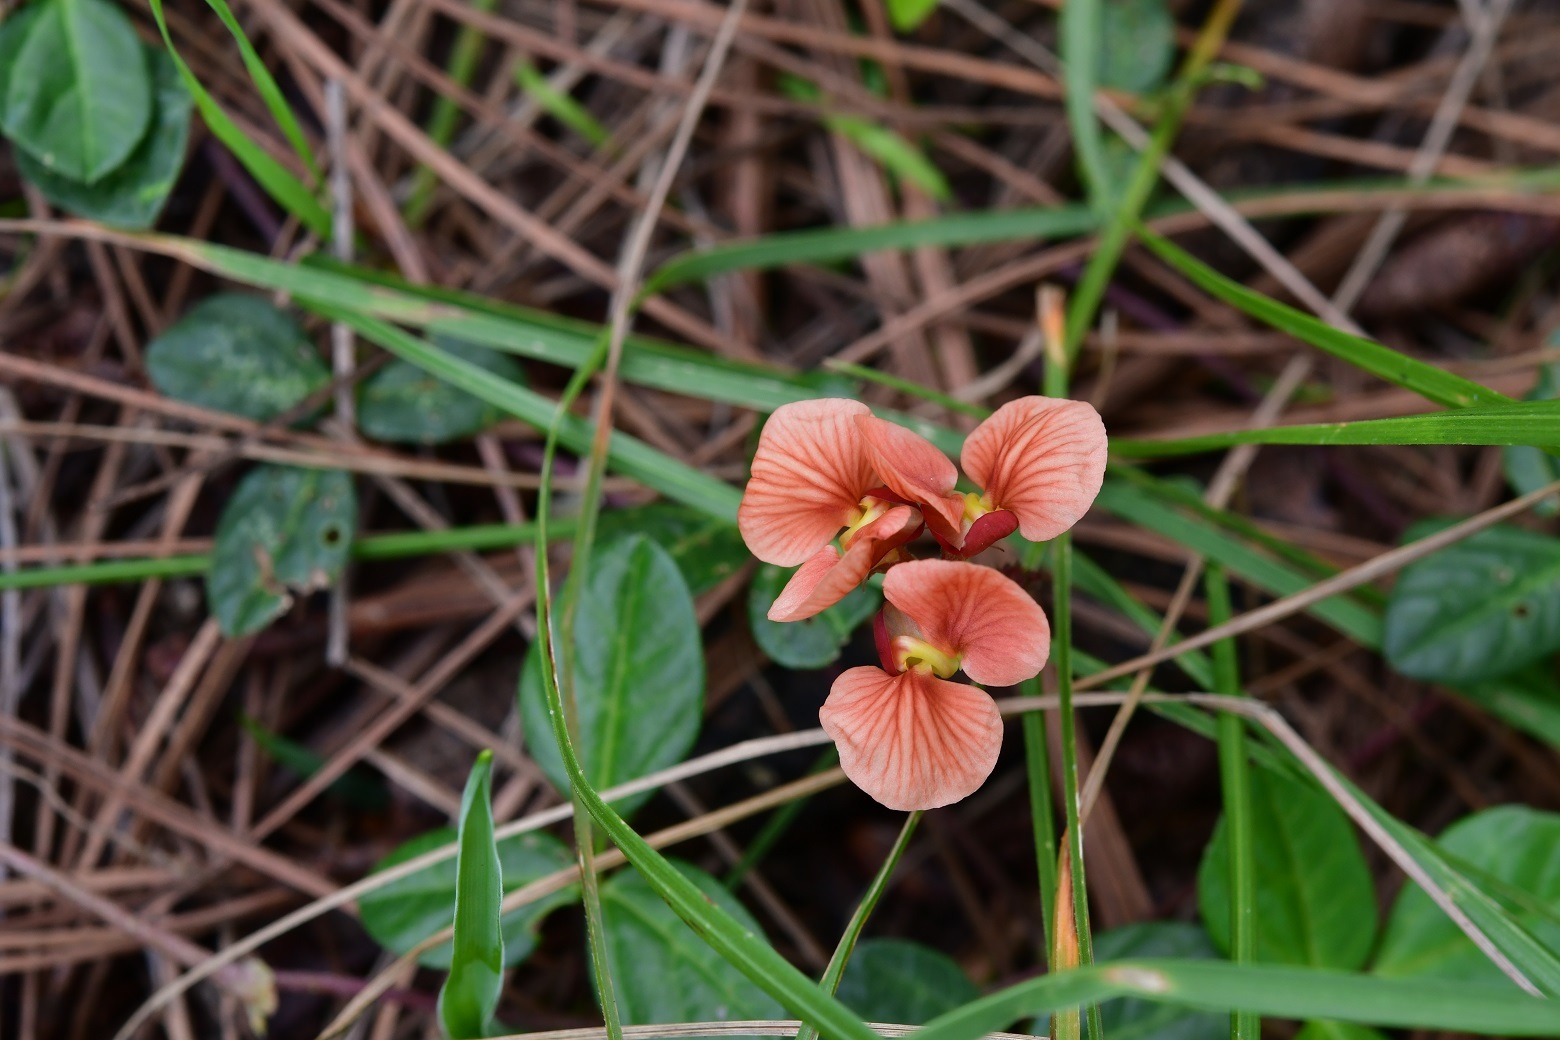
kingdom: Plantae
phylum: Tracheophyta
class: Magnoliopsida
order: Fabales
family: Fabaceae
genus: Macroptilium
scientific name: Macroptilium gibbosifolium
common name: Variableleaf bushbean
